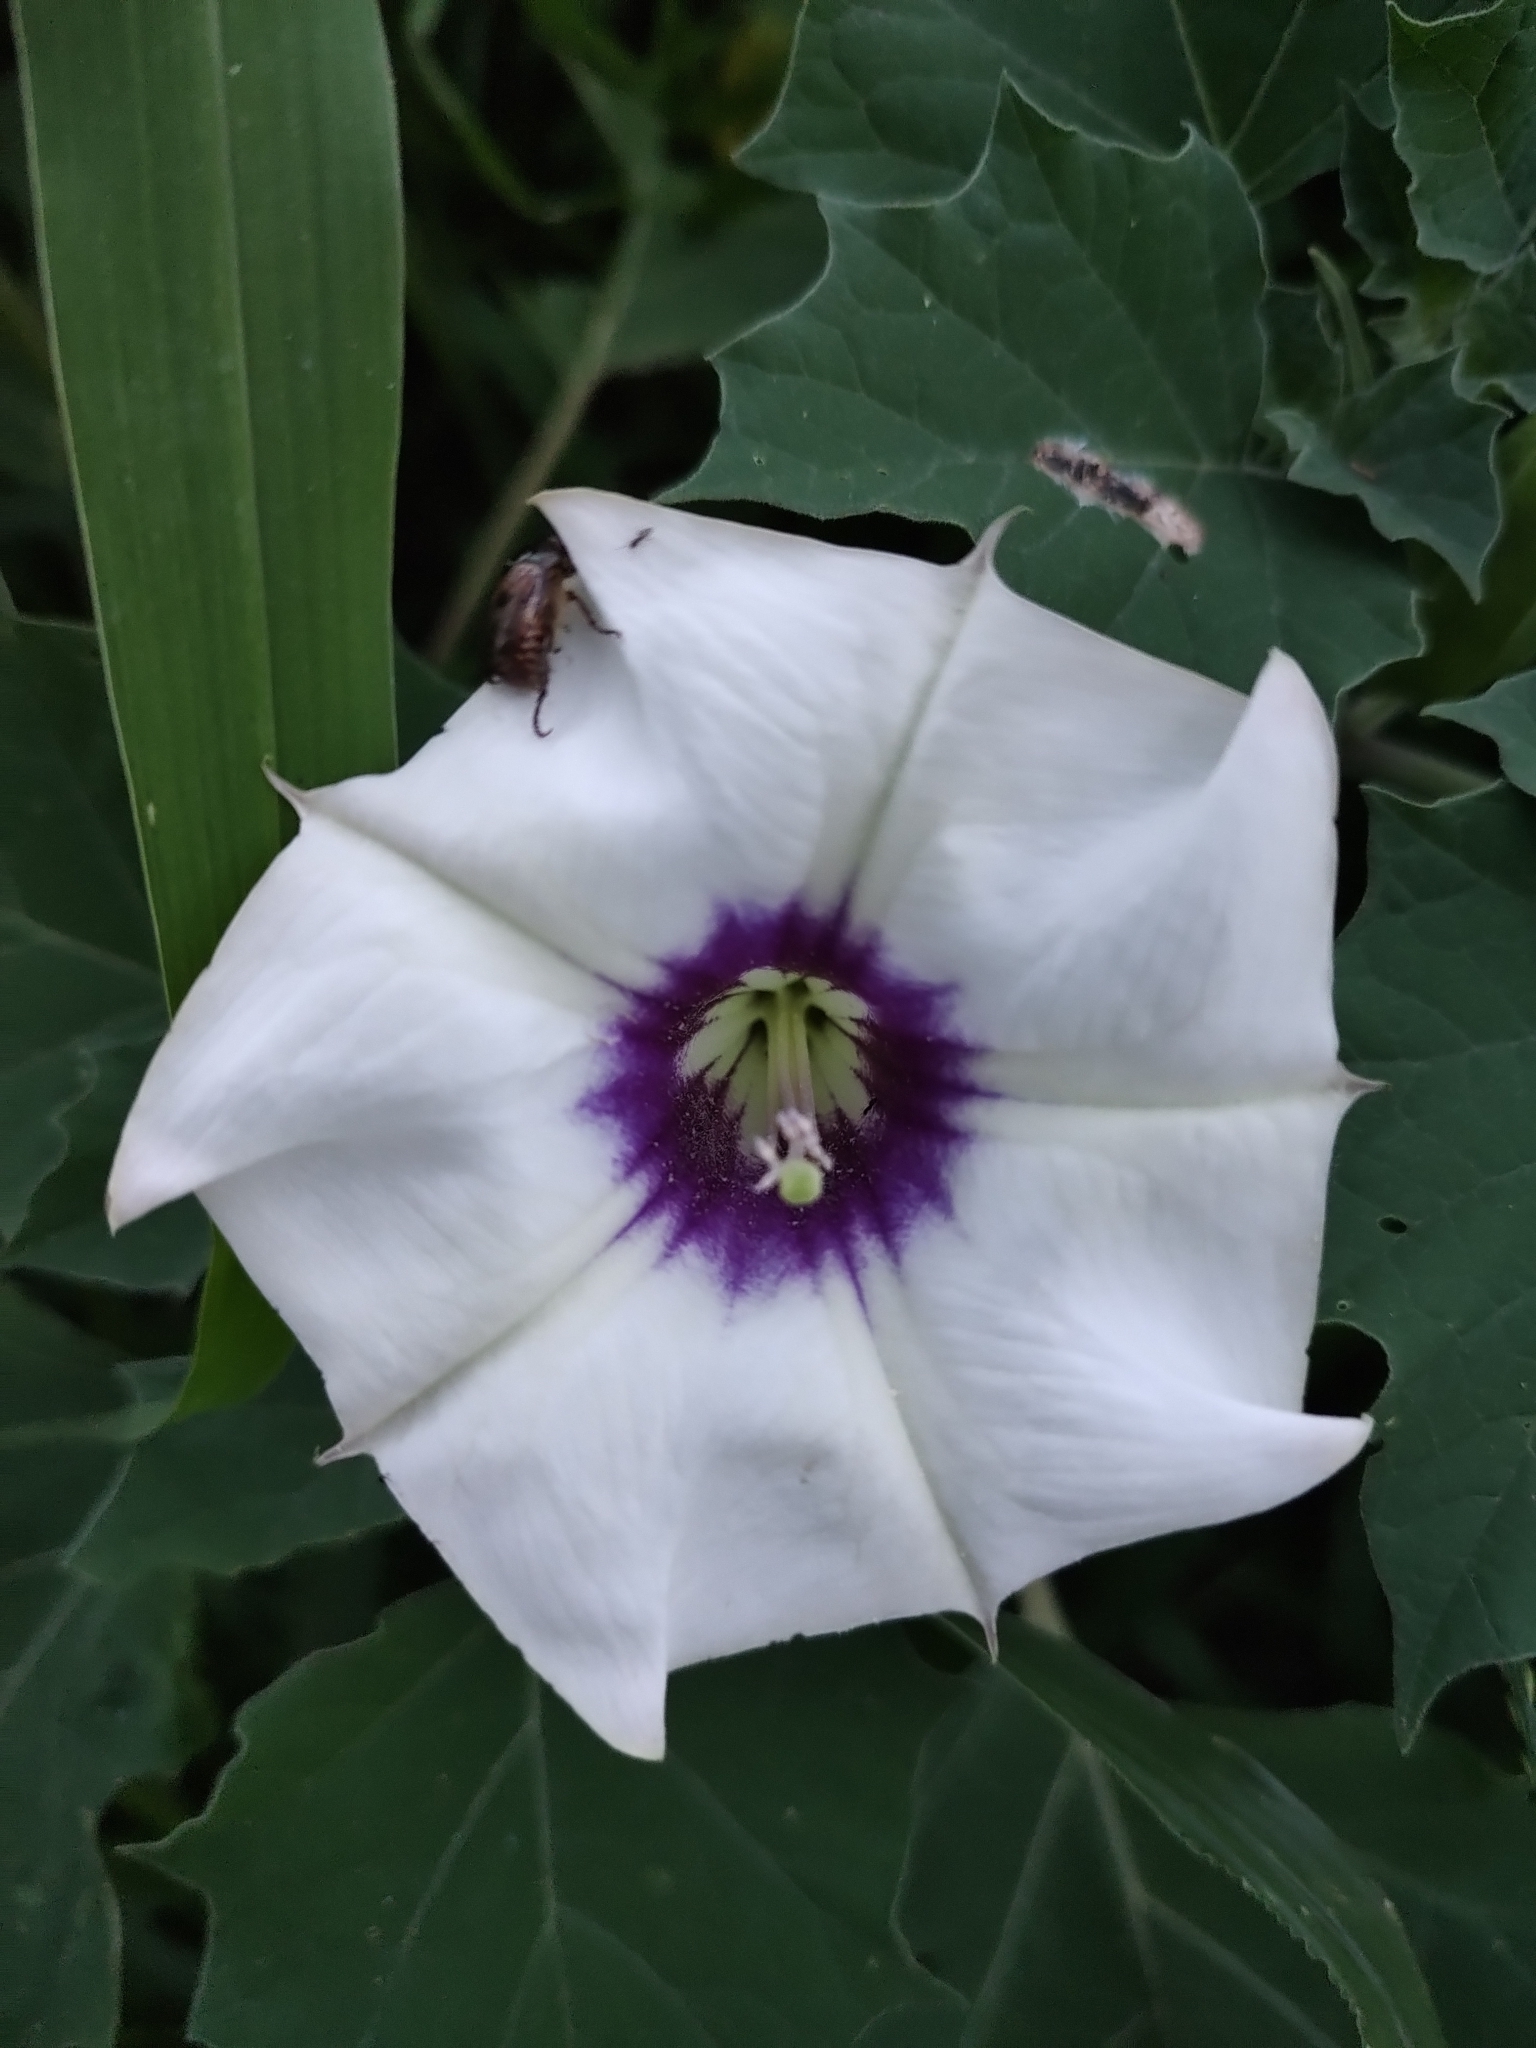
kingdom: Plantae
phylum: Tracheophyta
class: Magnoliopsida
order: Solanales
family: Solanaceae
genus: Datura
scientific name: Datura discolor
